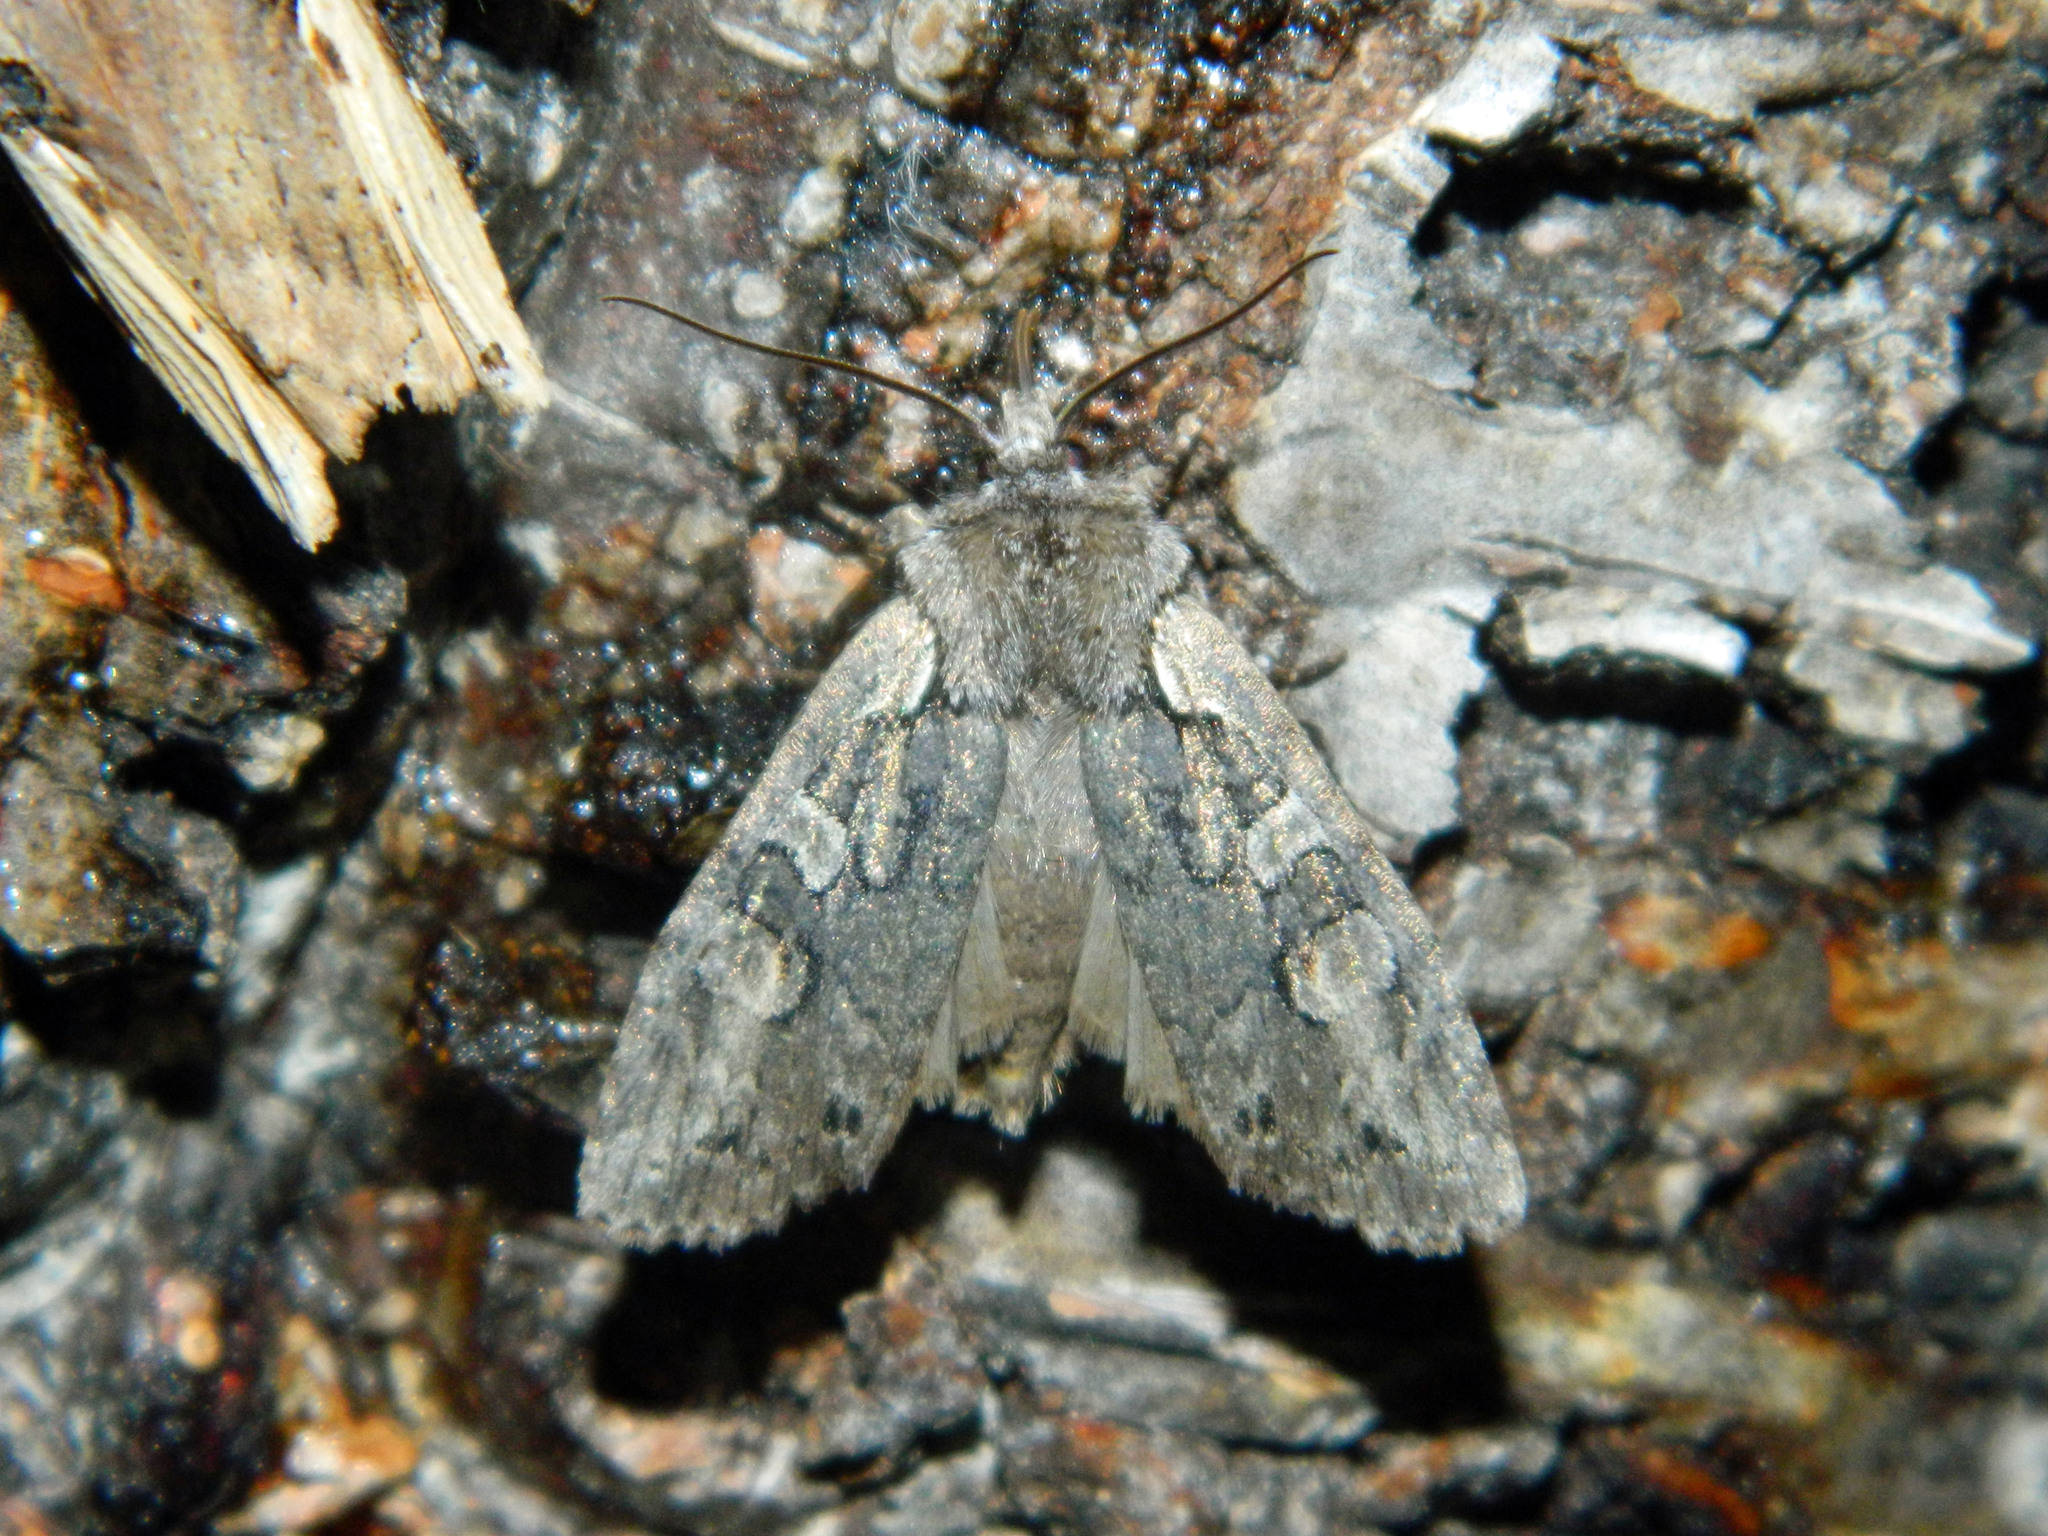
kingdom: Animalia
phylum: Arthropoda
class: Insecta
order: Lepidoptera
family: Noctuidae
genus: Lithophane
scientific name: Lithophane baileyi
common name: Bailey's pinion moth
